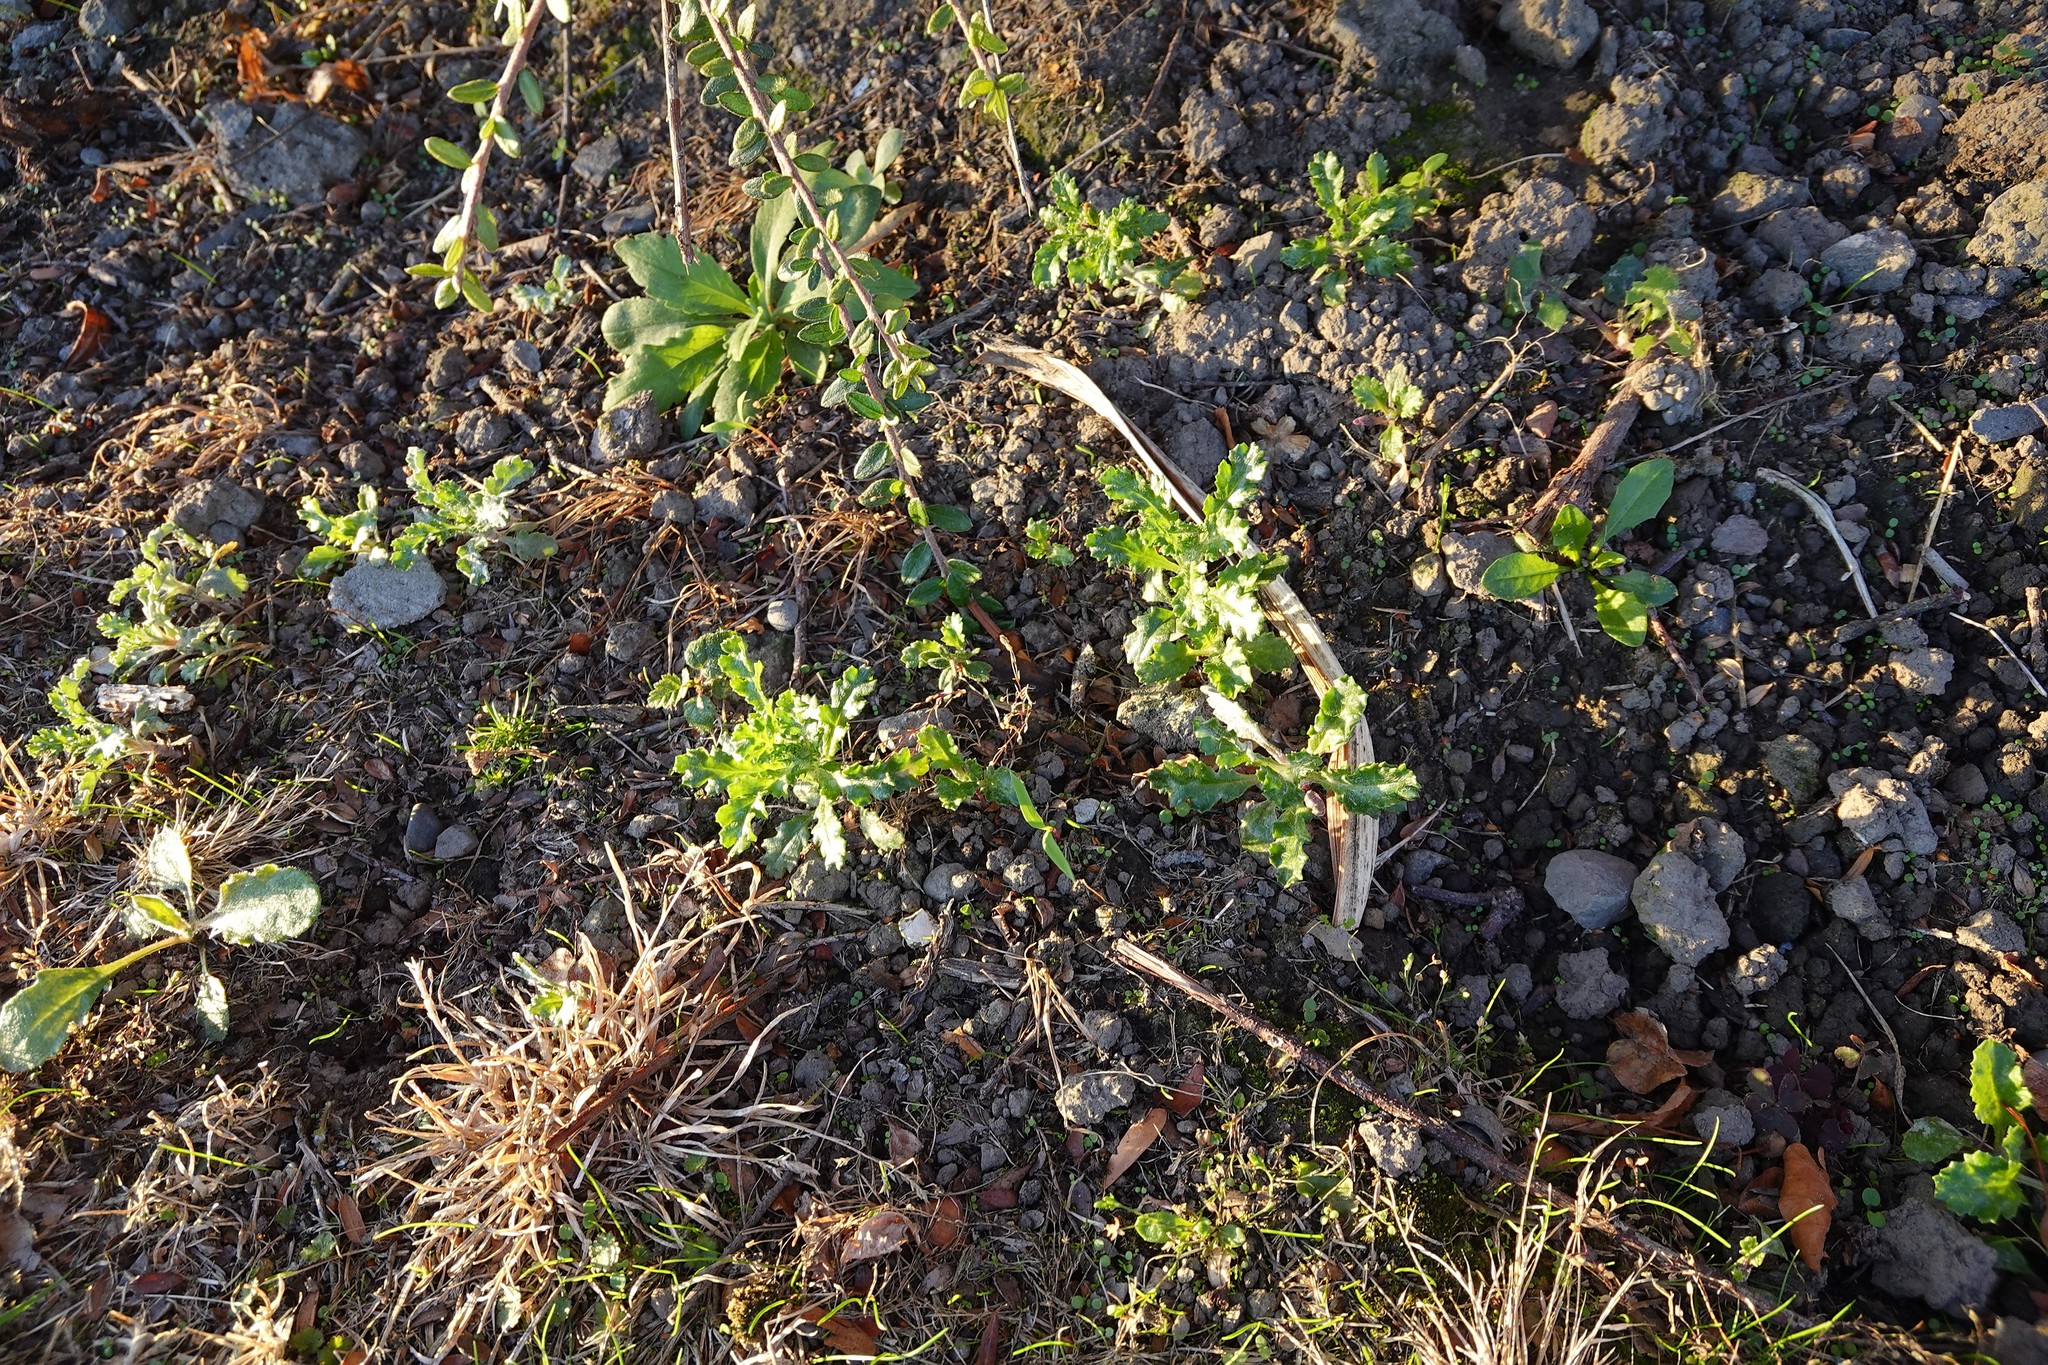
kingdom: Plantae
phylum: Tracheophyta
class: Magnoliopsida
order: Asterales
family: Asteraceae
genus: Senecio
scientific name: Senecio vulgaris
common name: Old-man-in-the-spring
